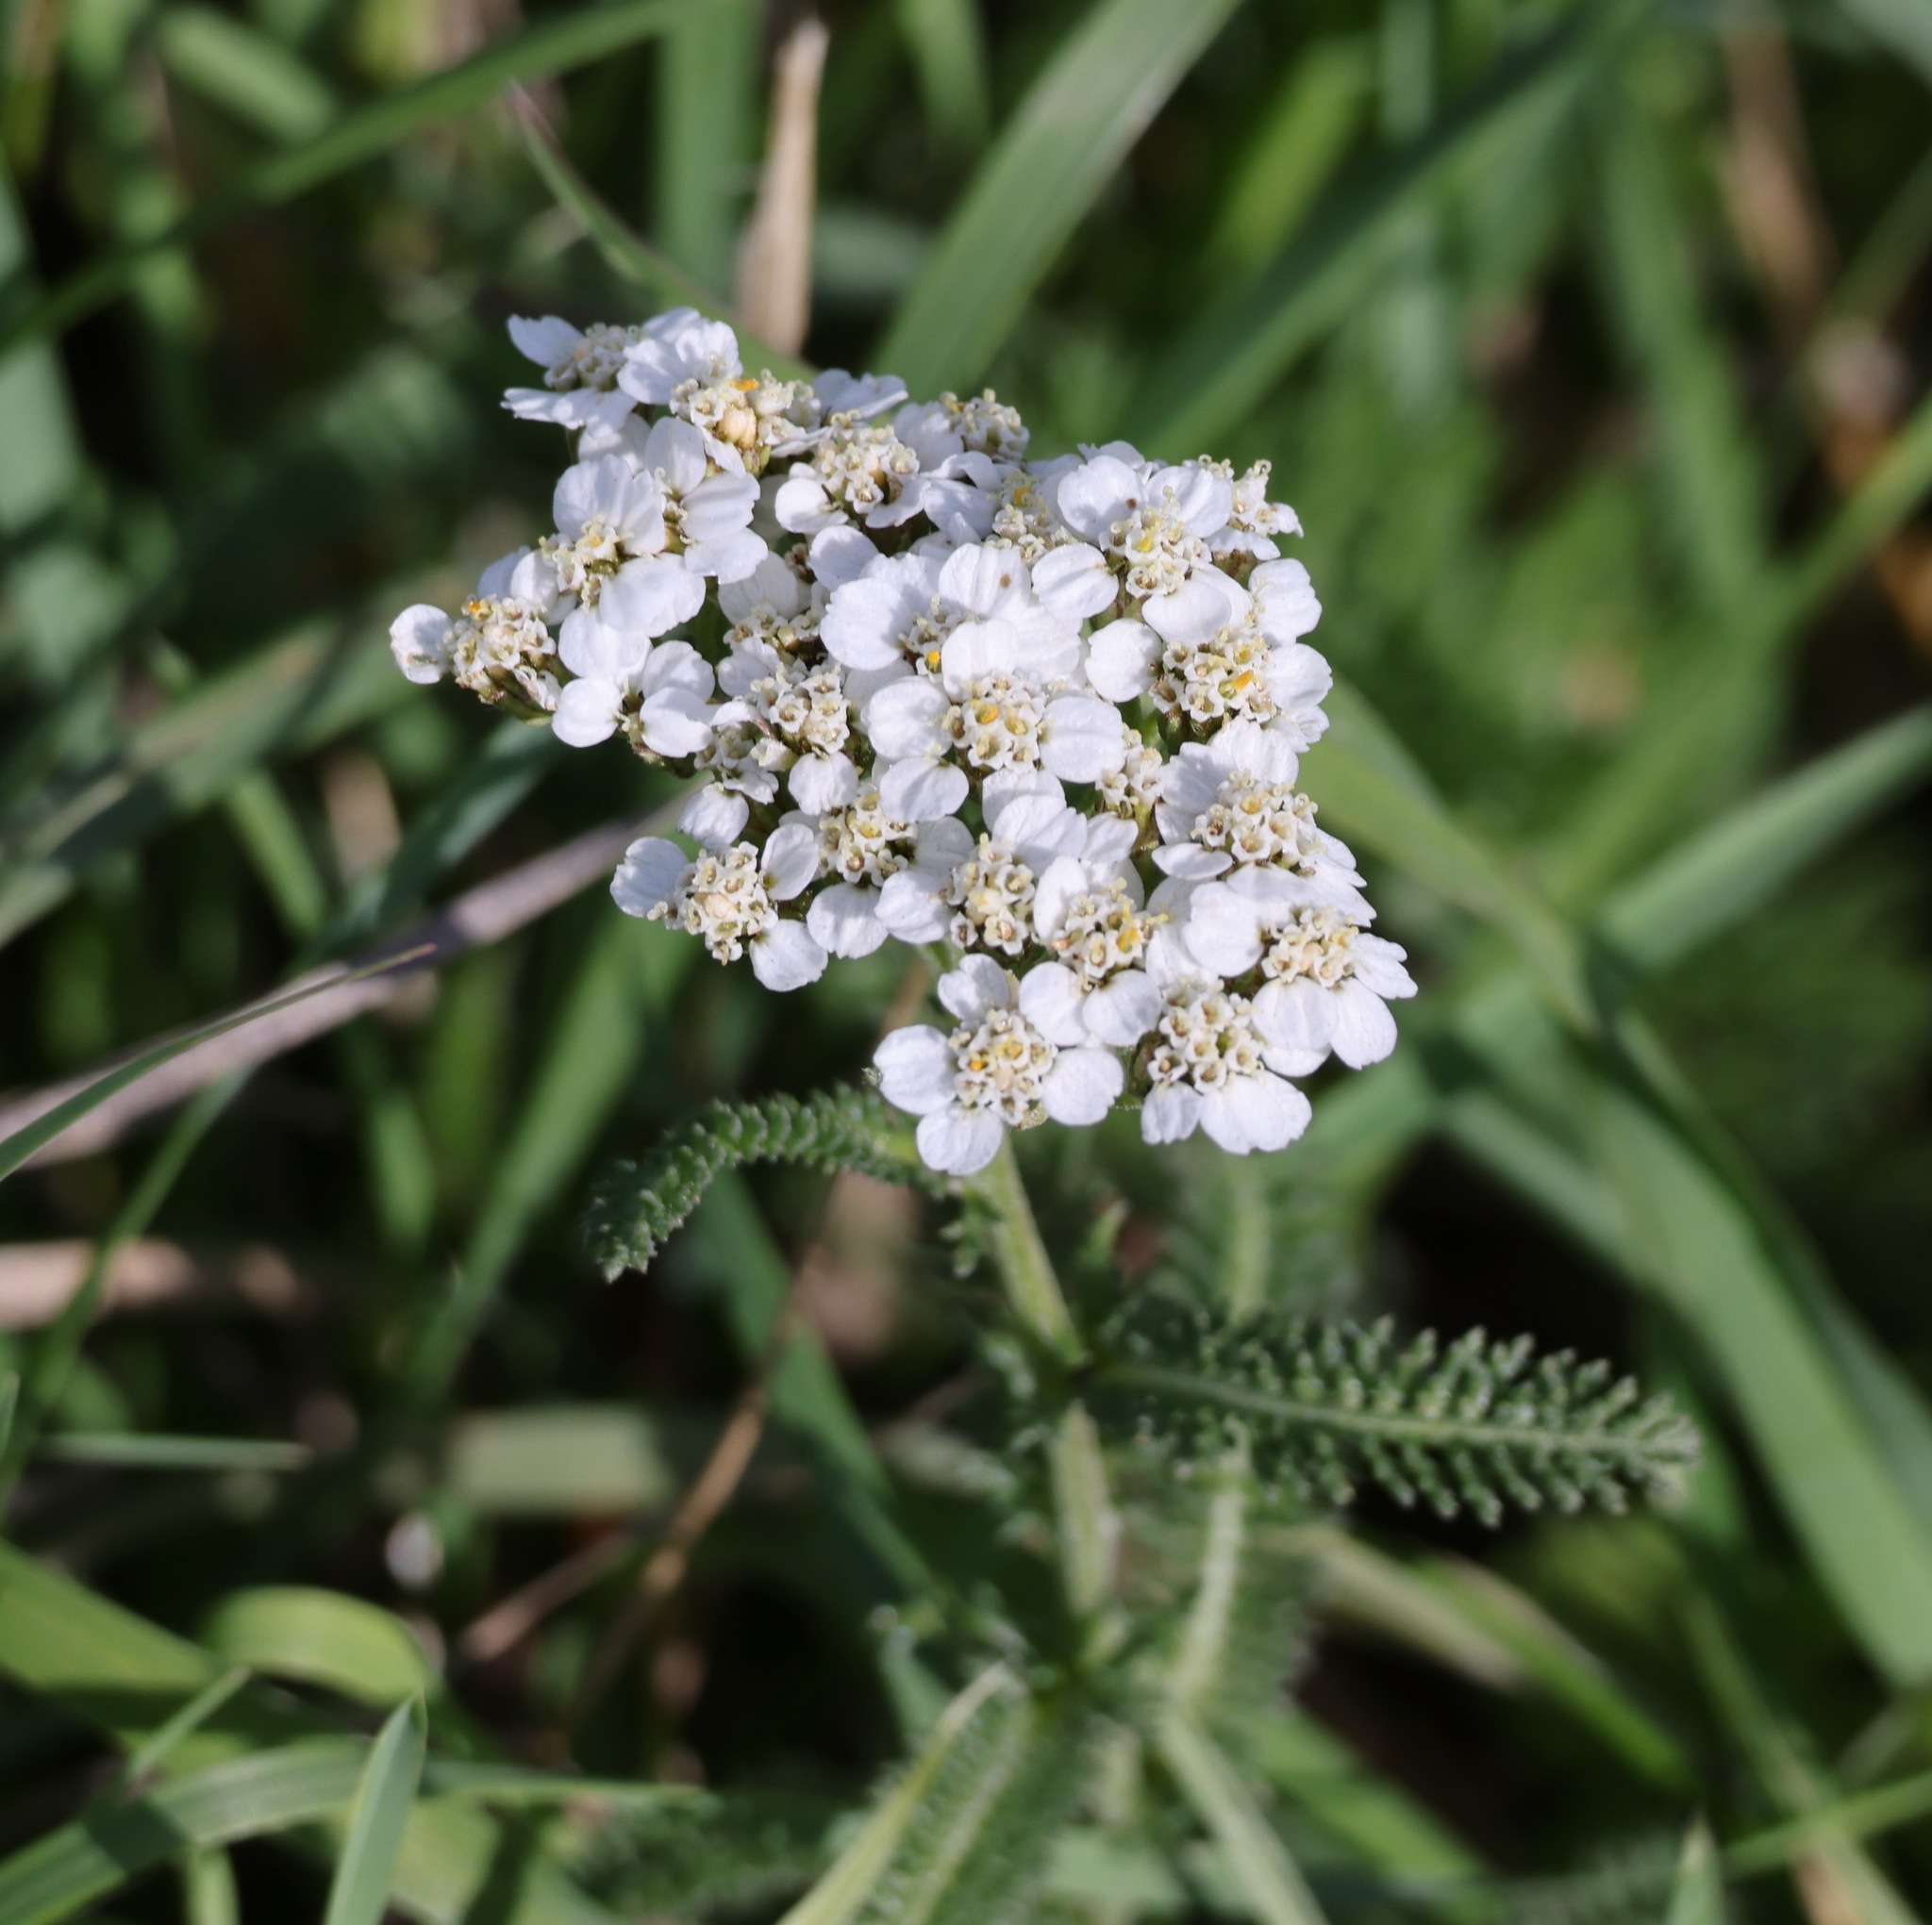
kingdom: Plantae
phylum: Tracheophyta
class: Magnoliopsida
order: Asterales
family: Asteraceae
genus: Achillea
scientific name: Achillea millefolium
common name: Yarrow
